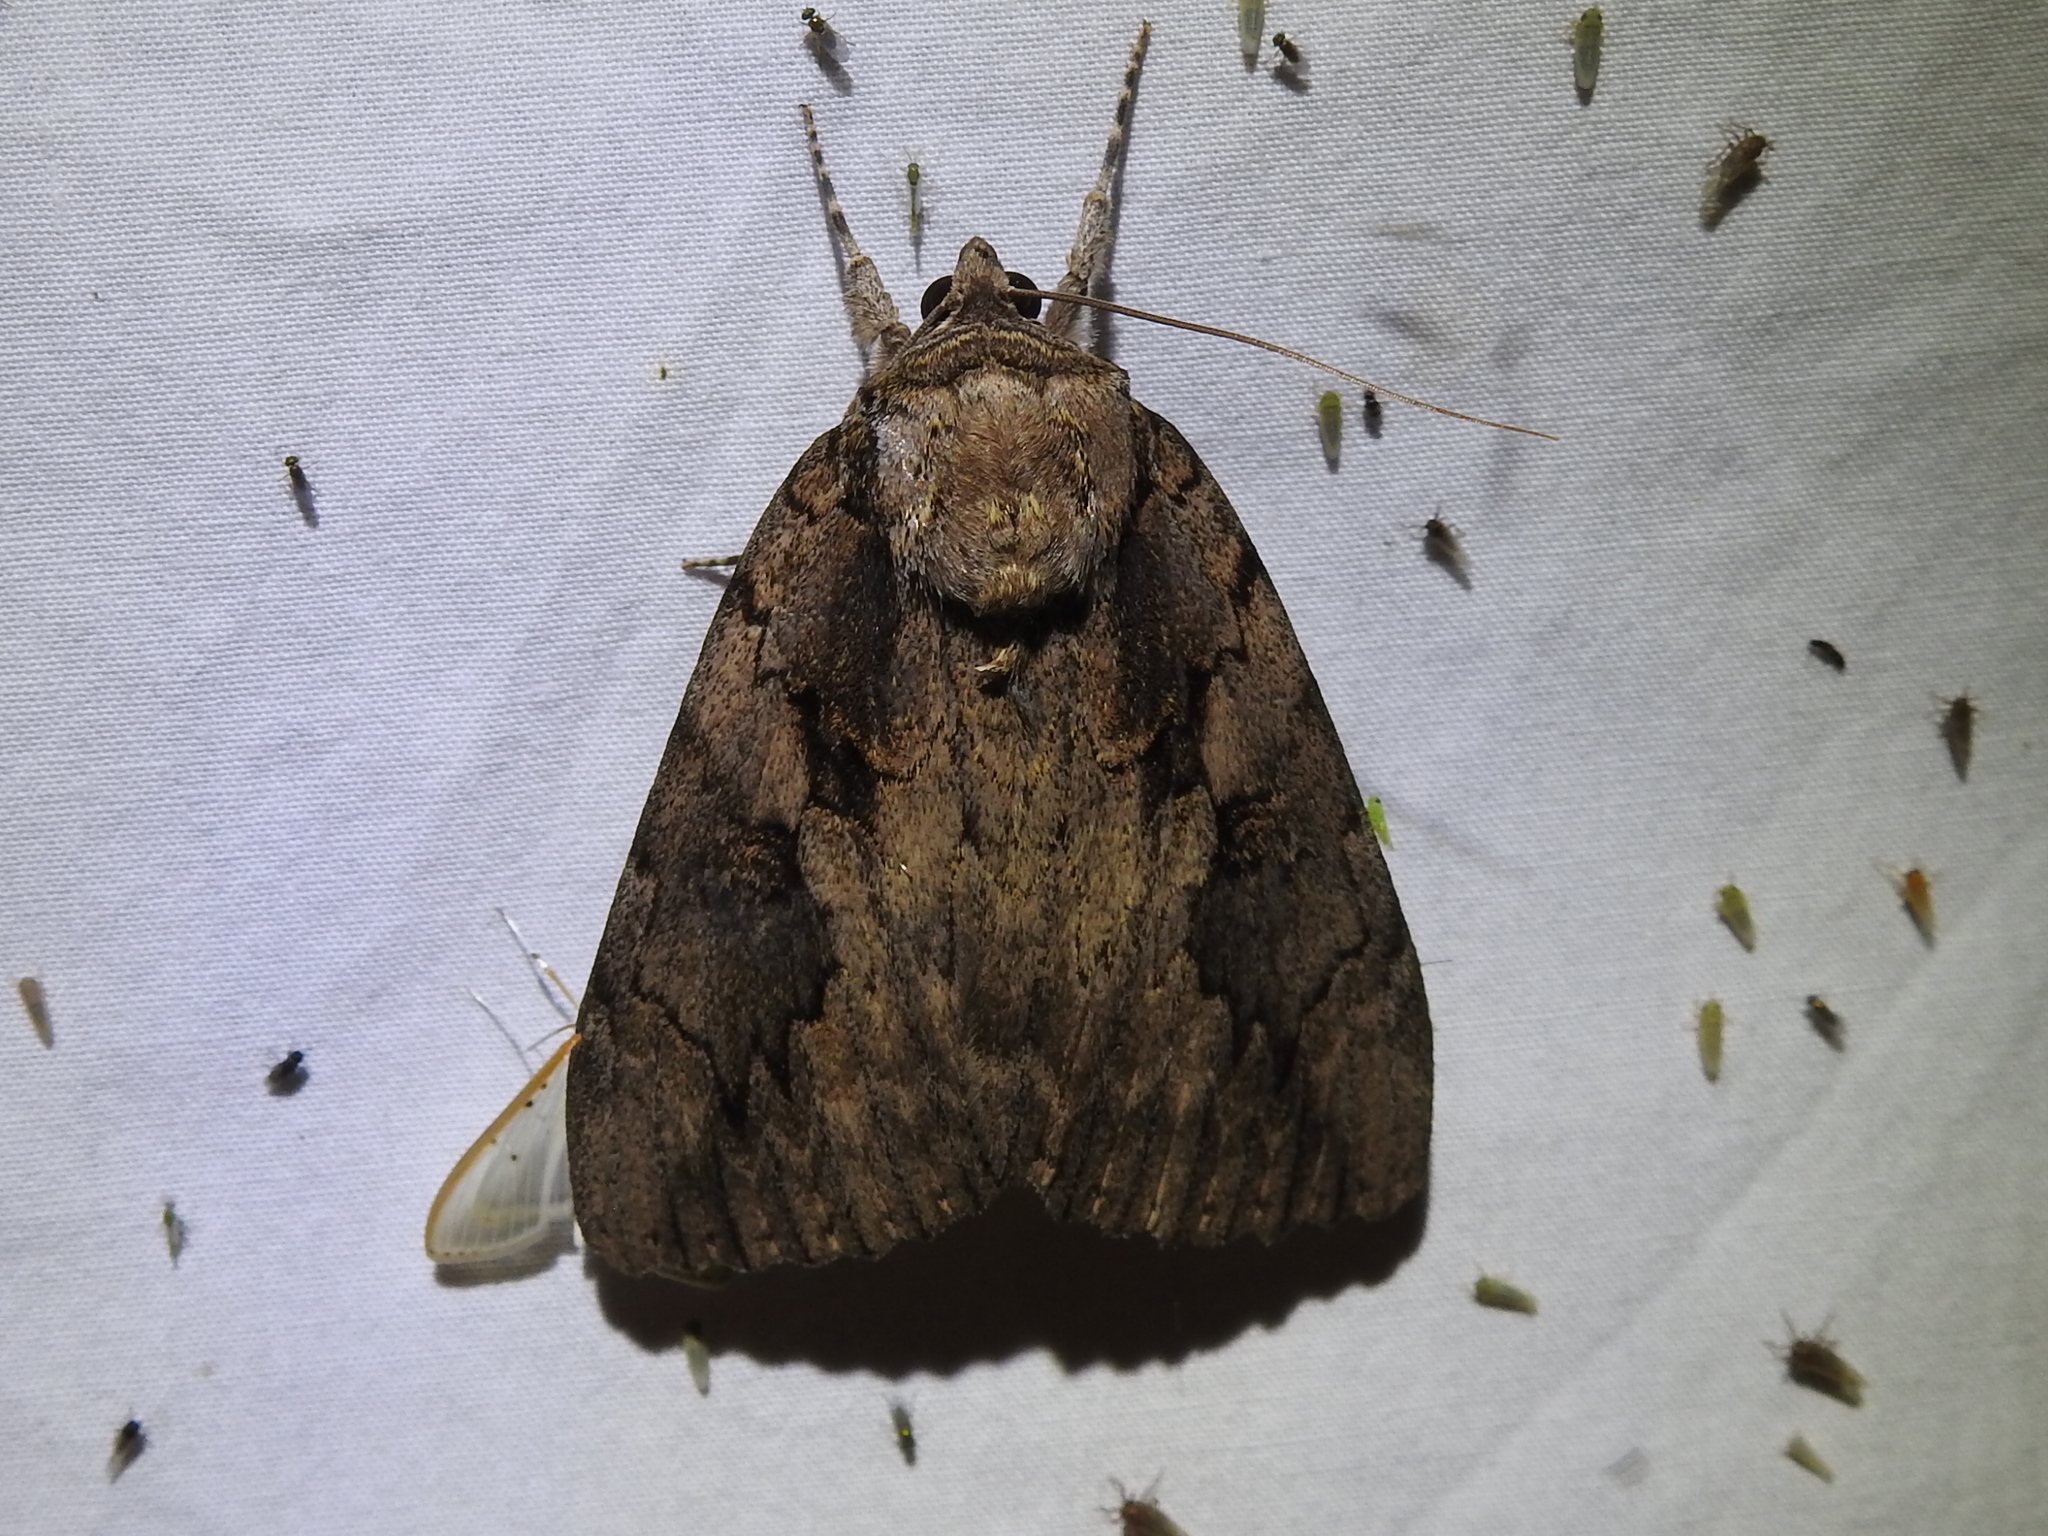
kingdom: Animalia
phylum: Arthropoda
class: Insecta
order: Lepidoptera
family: Erebidae
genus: Catocala
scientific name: Catocala amatrix
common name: Sweetheart underwing
